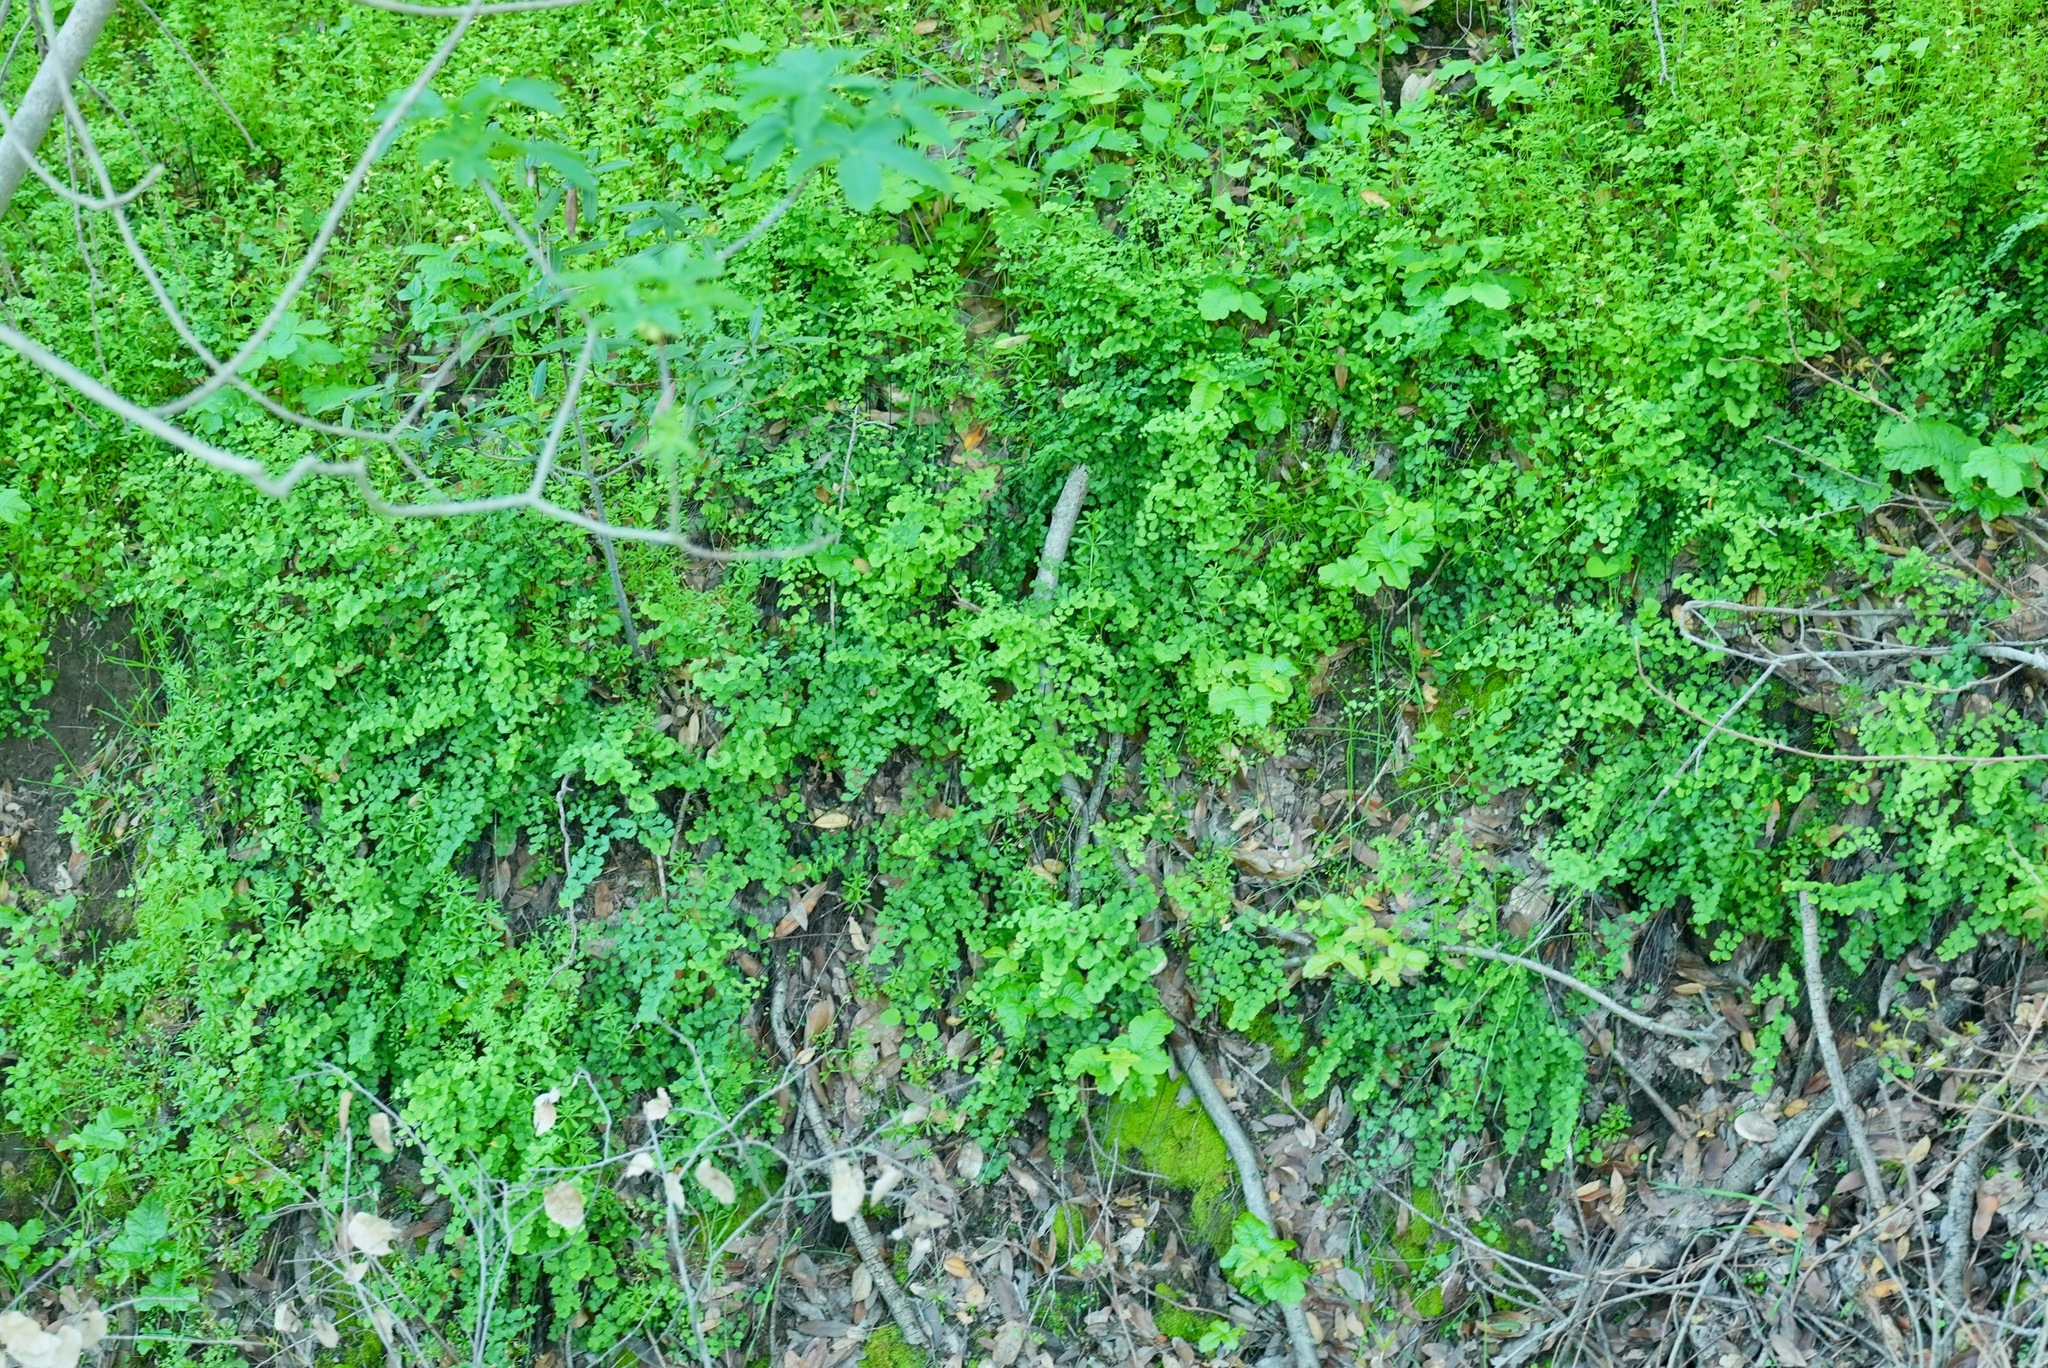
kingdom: Plantae
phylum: Tracheophyta
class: Polypodiopsida
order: Polypodiales
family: Pteridaceae
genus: Adiantum
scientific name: Adiantum jordanii
